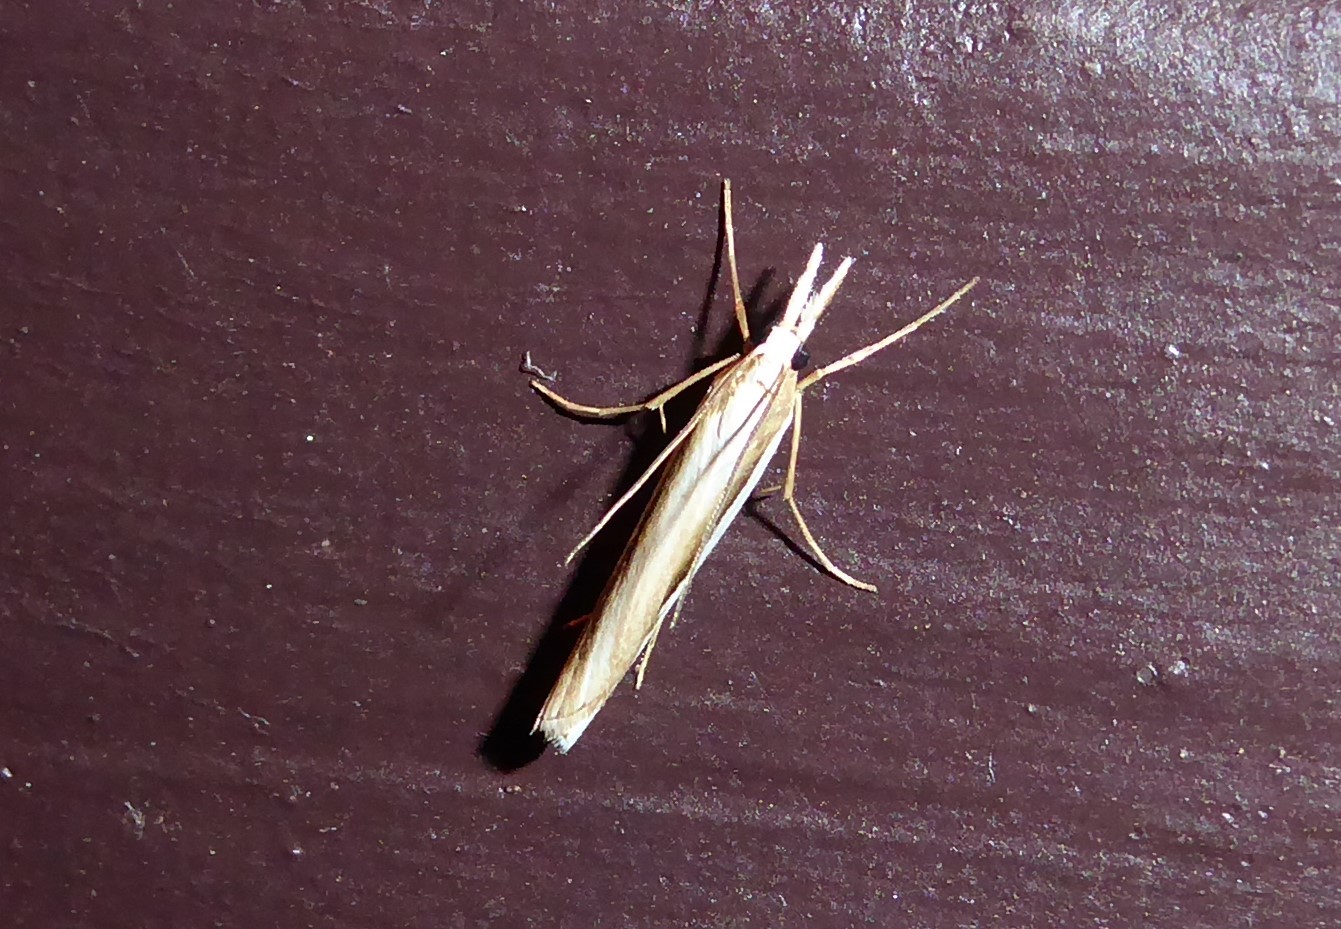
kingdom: Animalia
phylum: Arthropoda
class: Insecta
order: Lepidoptera
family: Crambidae
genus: Orocrambus
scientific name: Orocrambus ramosellus
